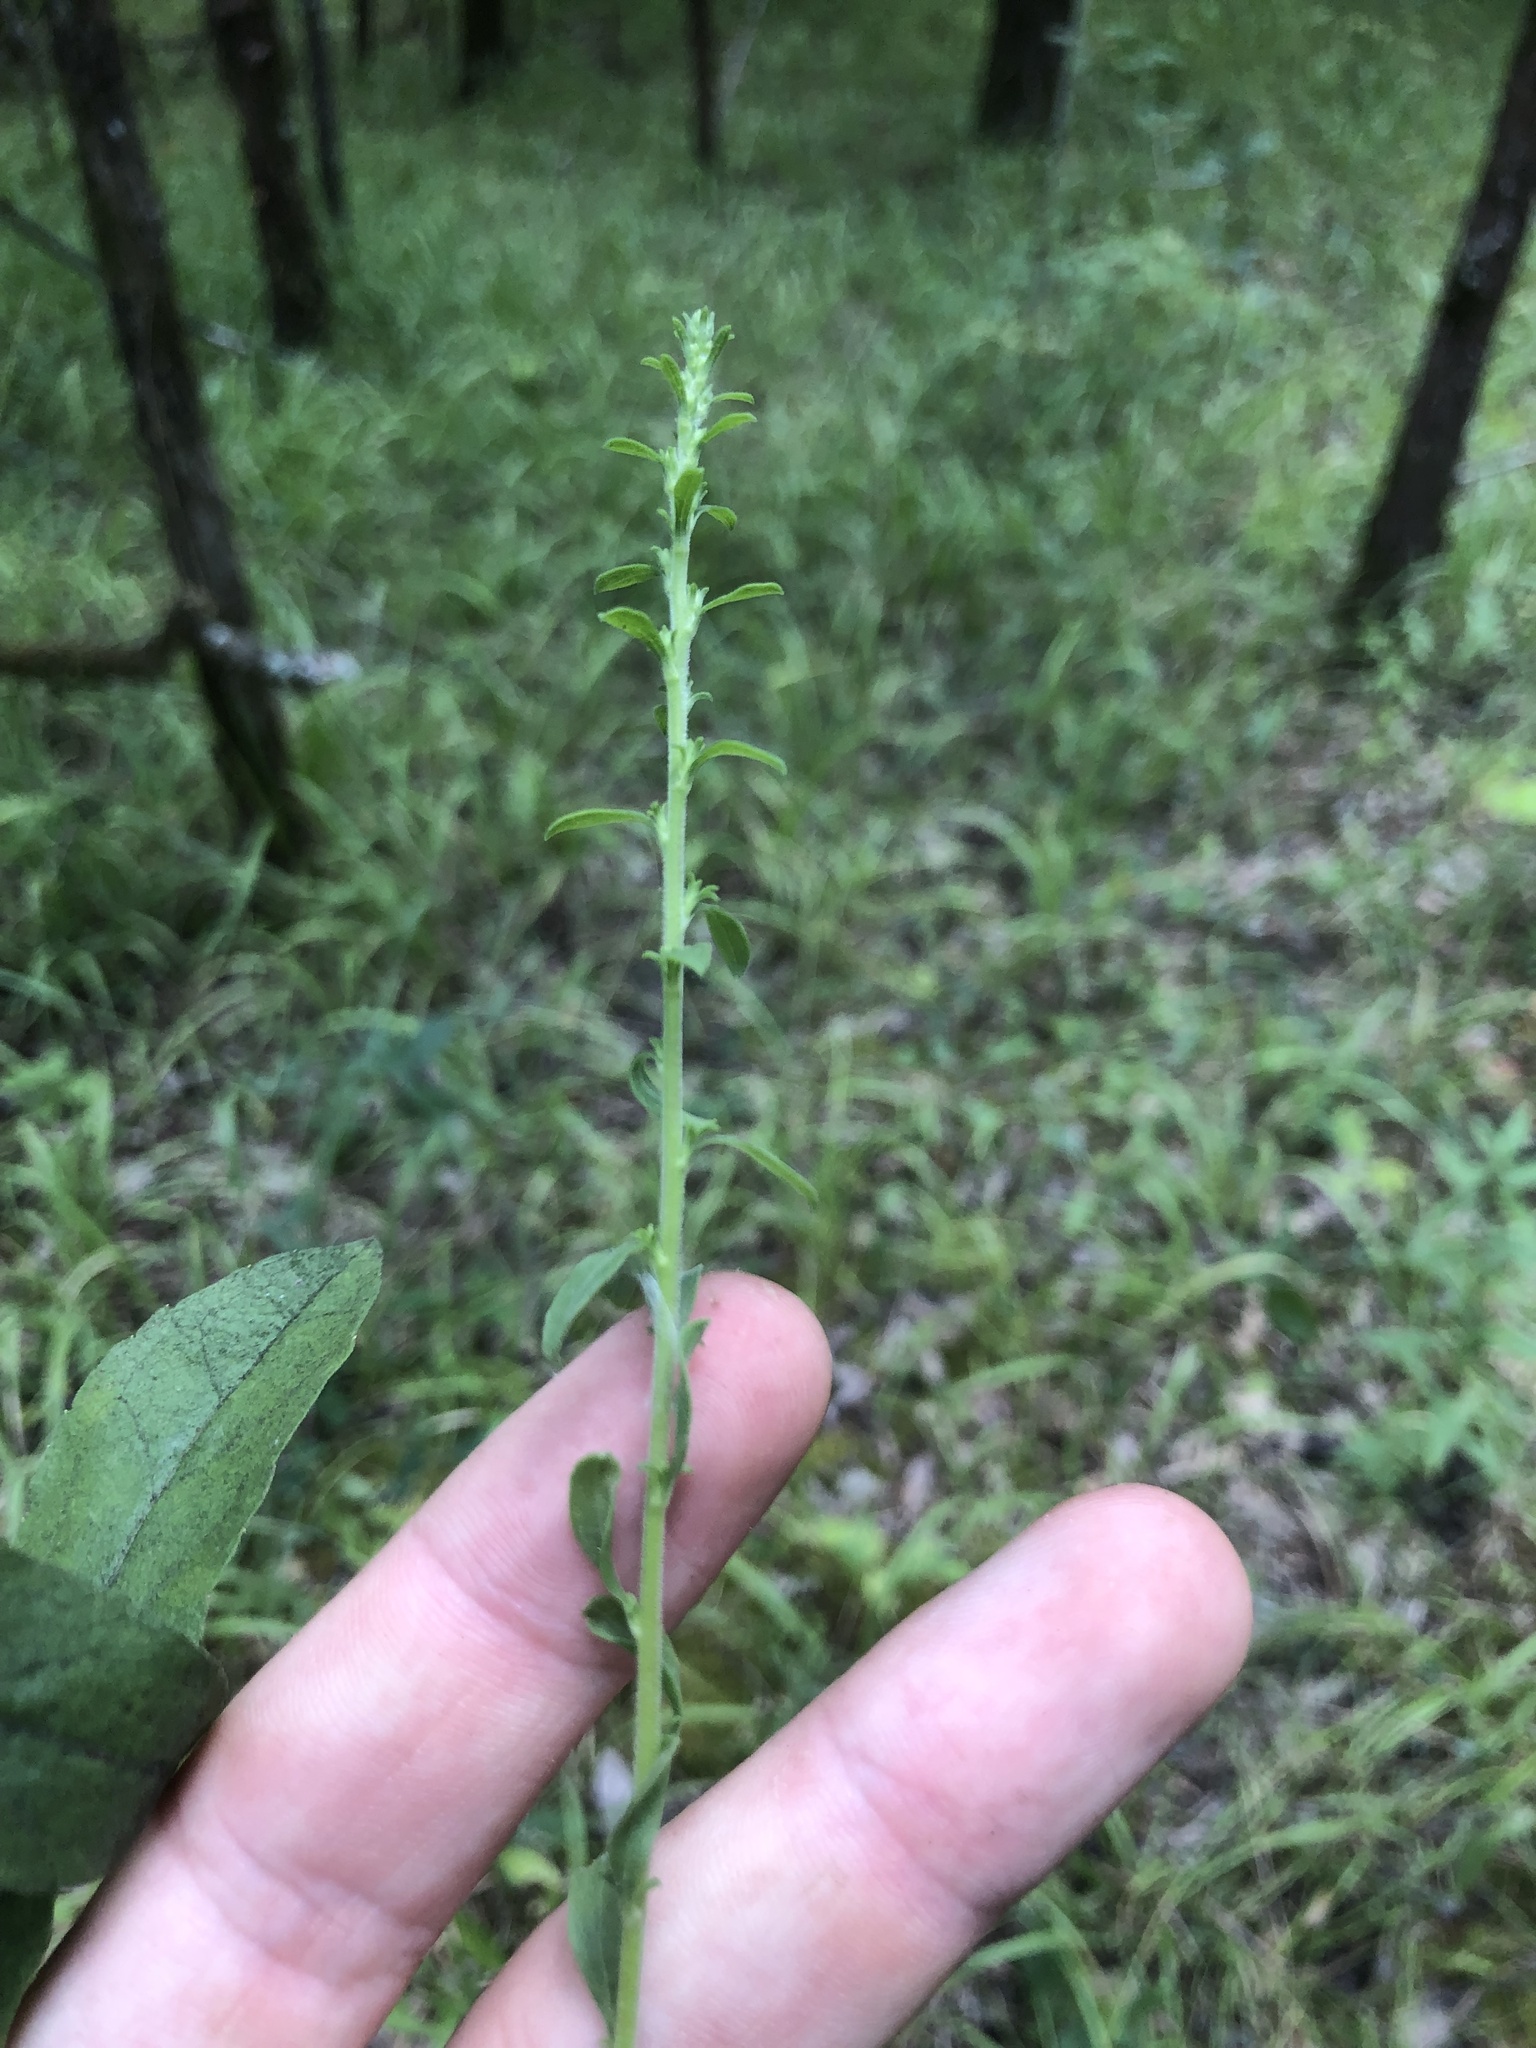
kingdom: Plantae
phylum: Tracheophyta
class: Magnoliopsida
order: Asterales
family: Asteraceae
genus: Solidago
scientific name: Solidago nemoralis
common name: Grey goldenrod
